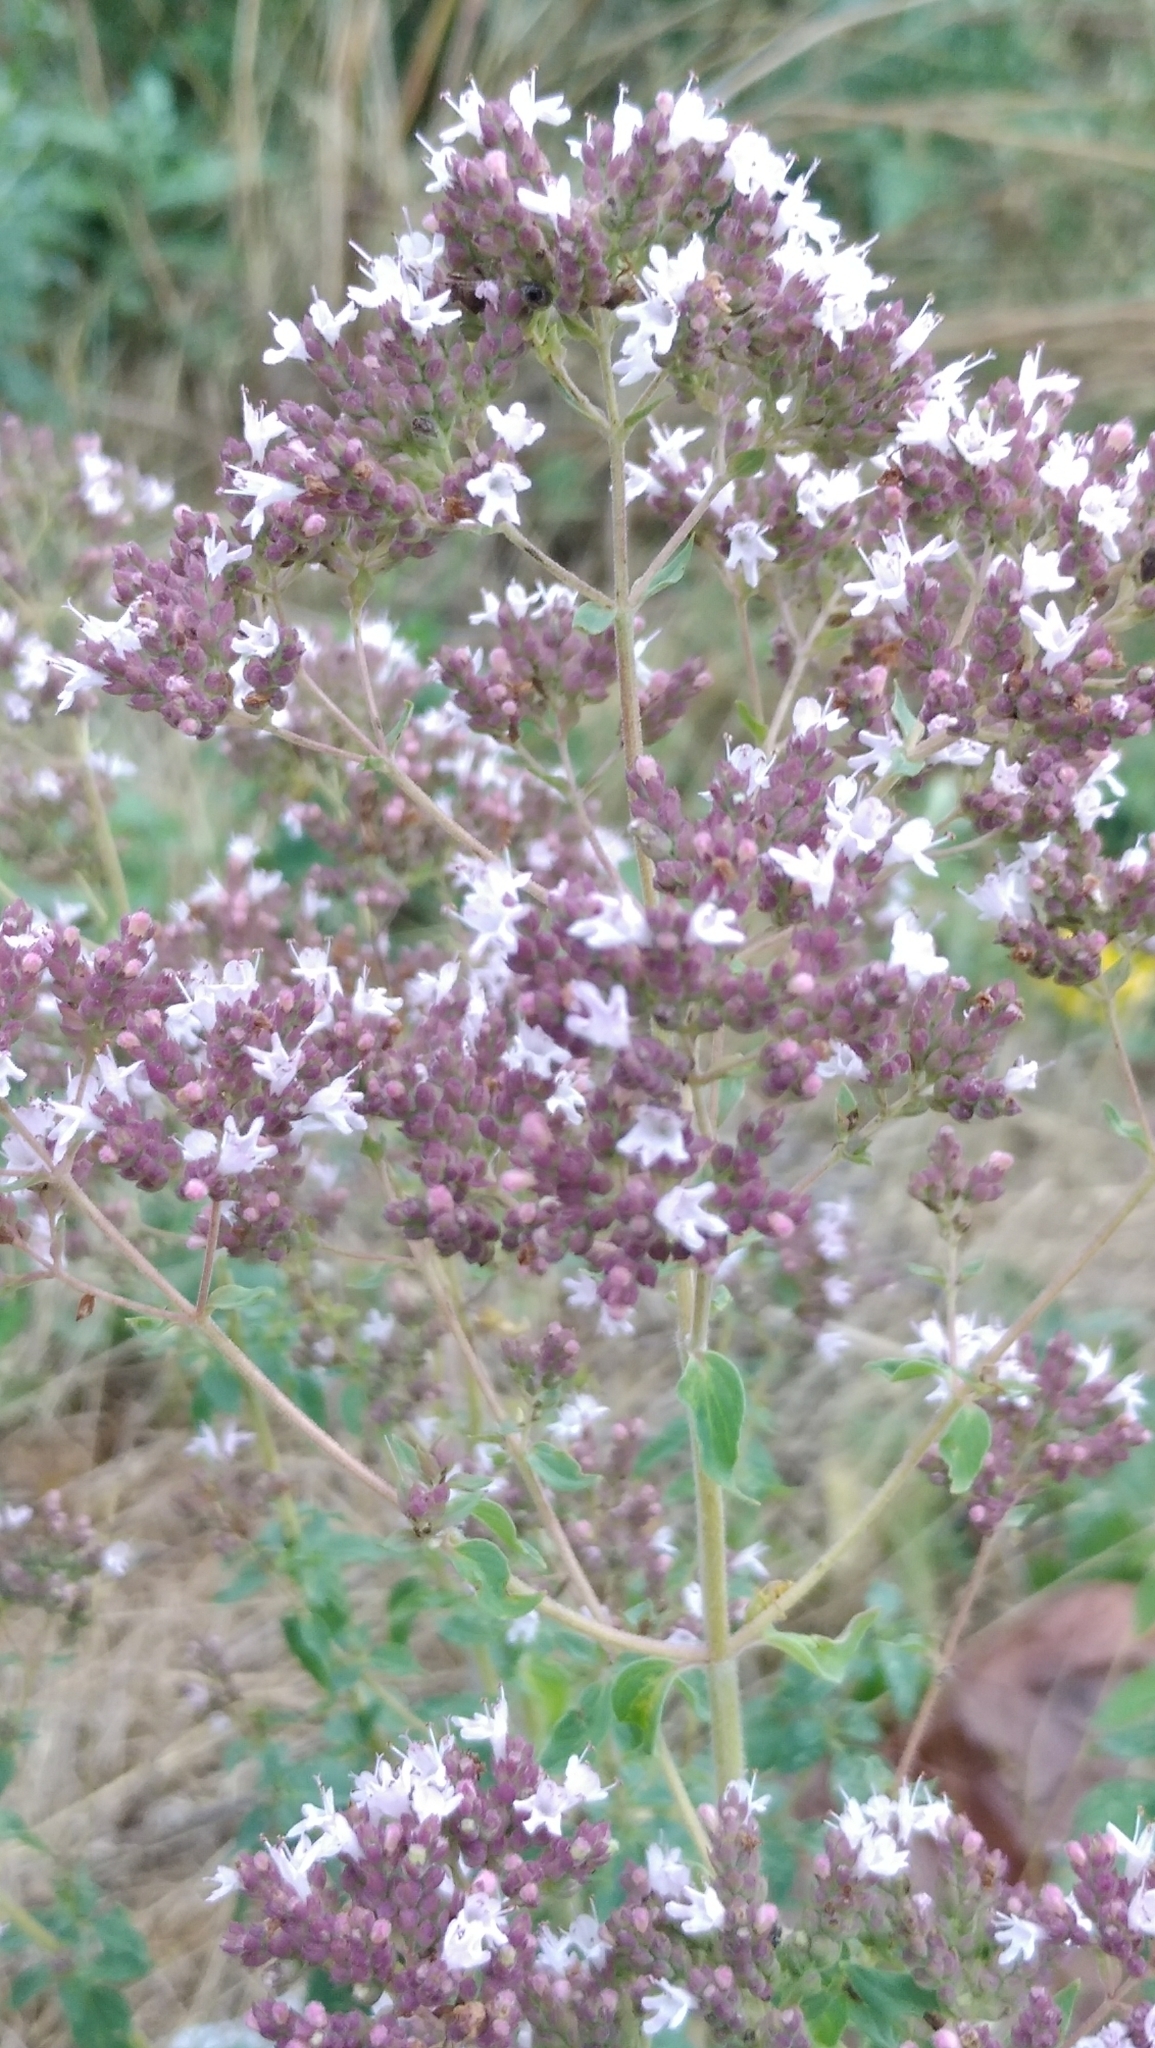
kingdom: Plantae
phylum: Tracheophyta
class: Magnoliopsida
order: Lamiales
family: Lamiaceae
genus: Origanum
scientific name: Origanum vulgare
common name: Wild marjoram
